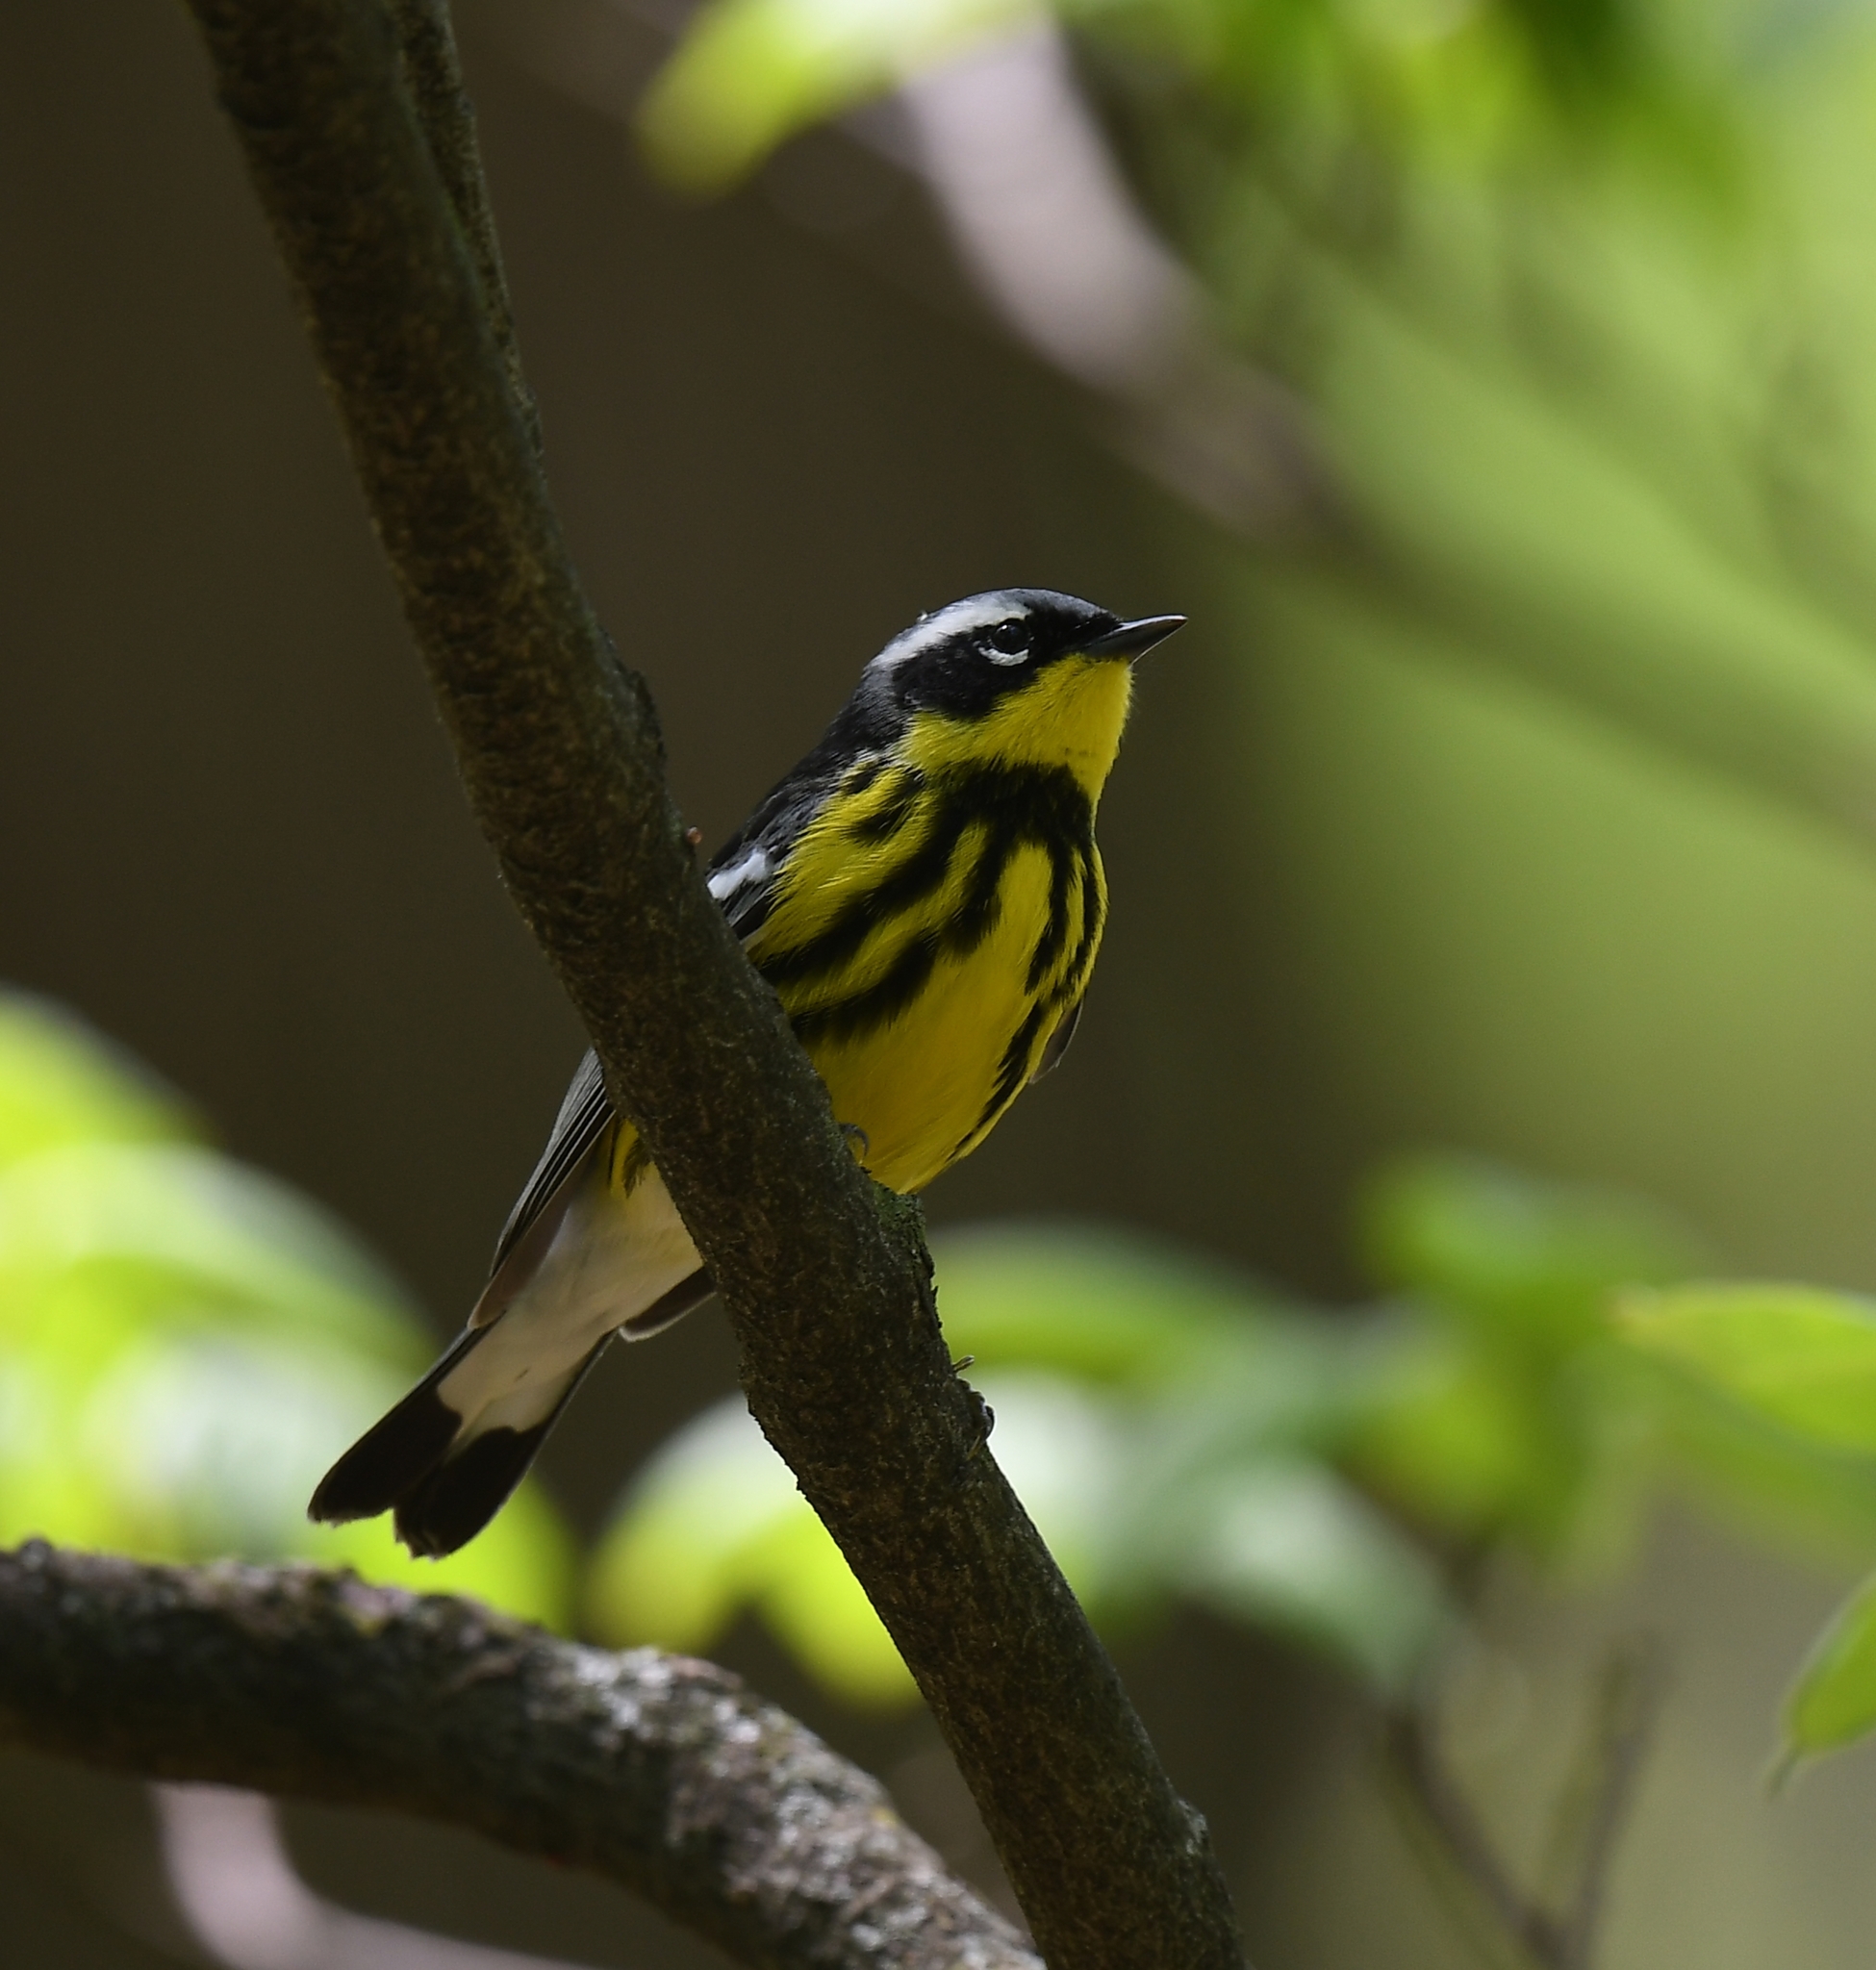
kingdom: Animalia
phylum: Chordata
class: Aves
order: Passeriformes
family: Parulidae
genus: Setophaga
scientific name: Setophaga magnolia
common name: Magnolia warbler
